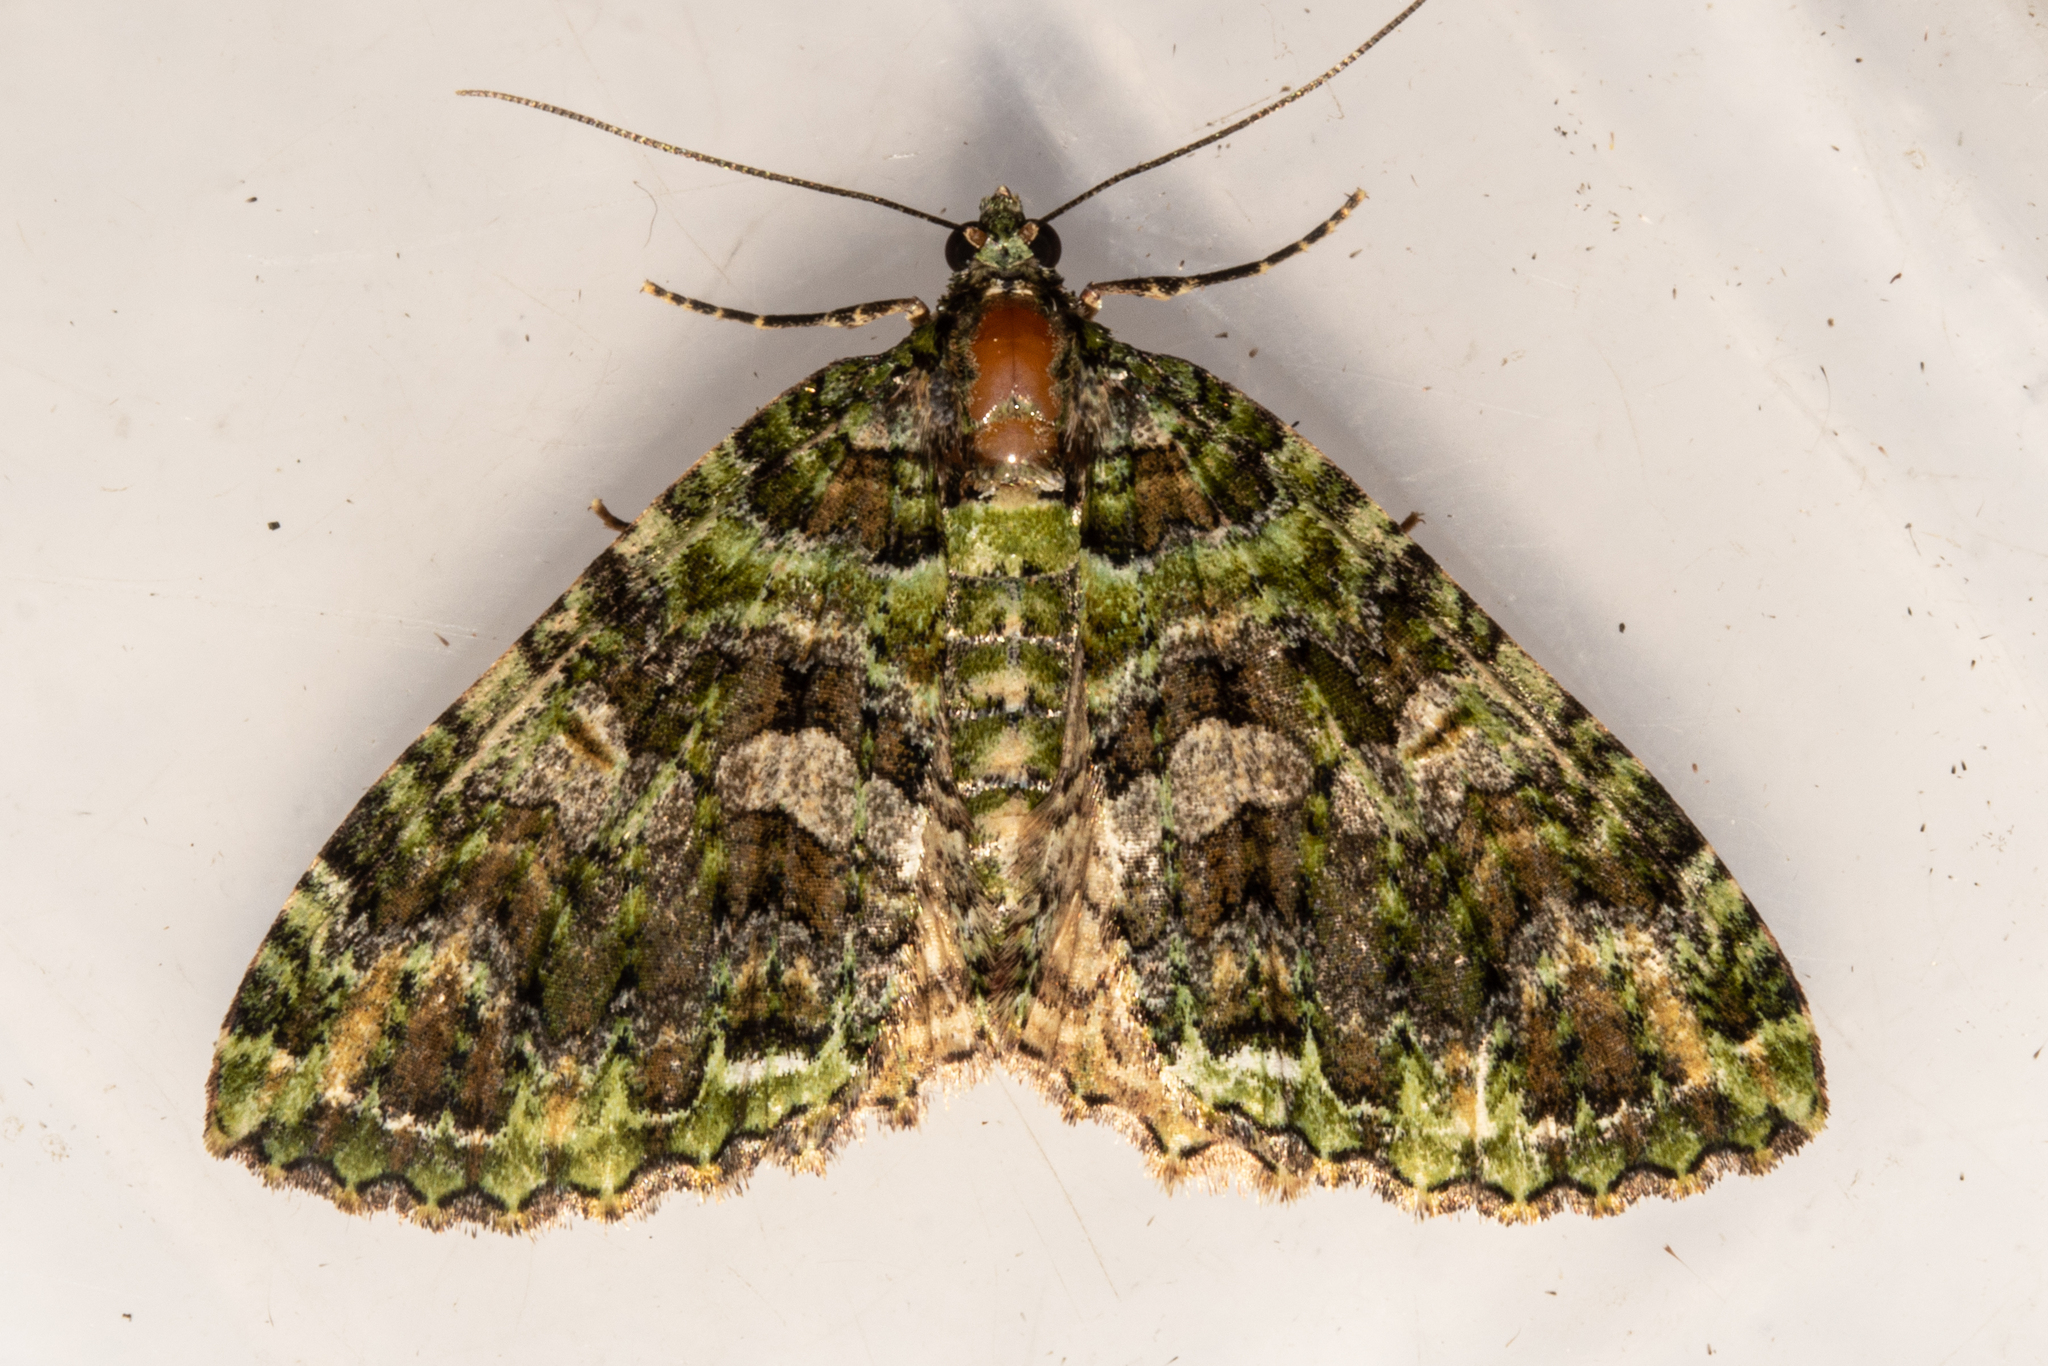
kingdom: Animalia
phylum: Arthropoda
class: Insecta
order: Lepidoptera
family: Geometridae
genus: Austrocidaria
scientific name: Austrocidaria similata
